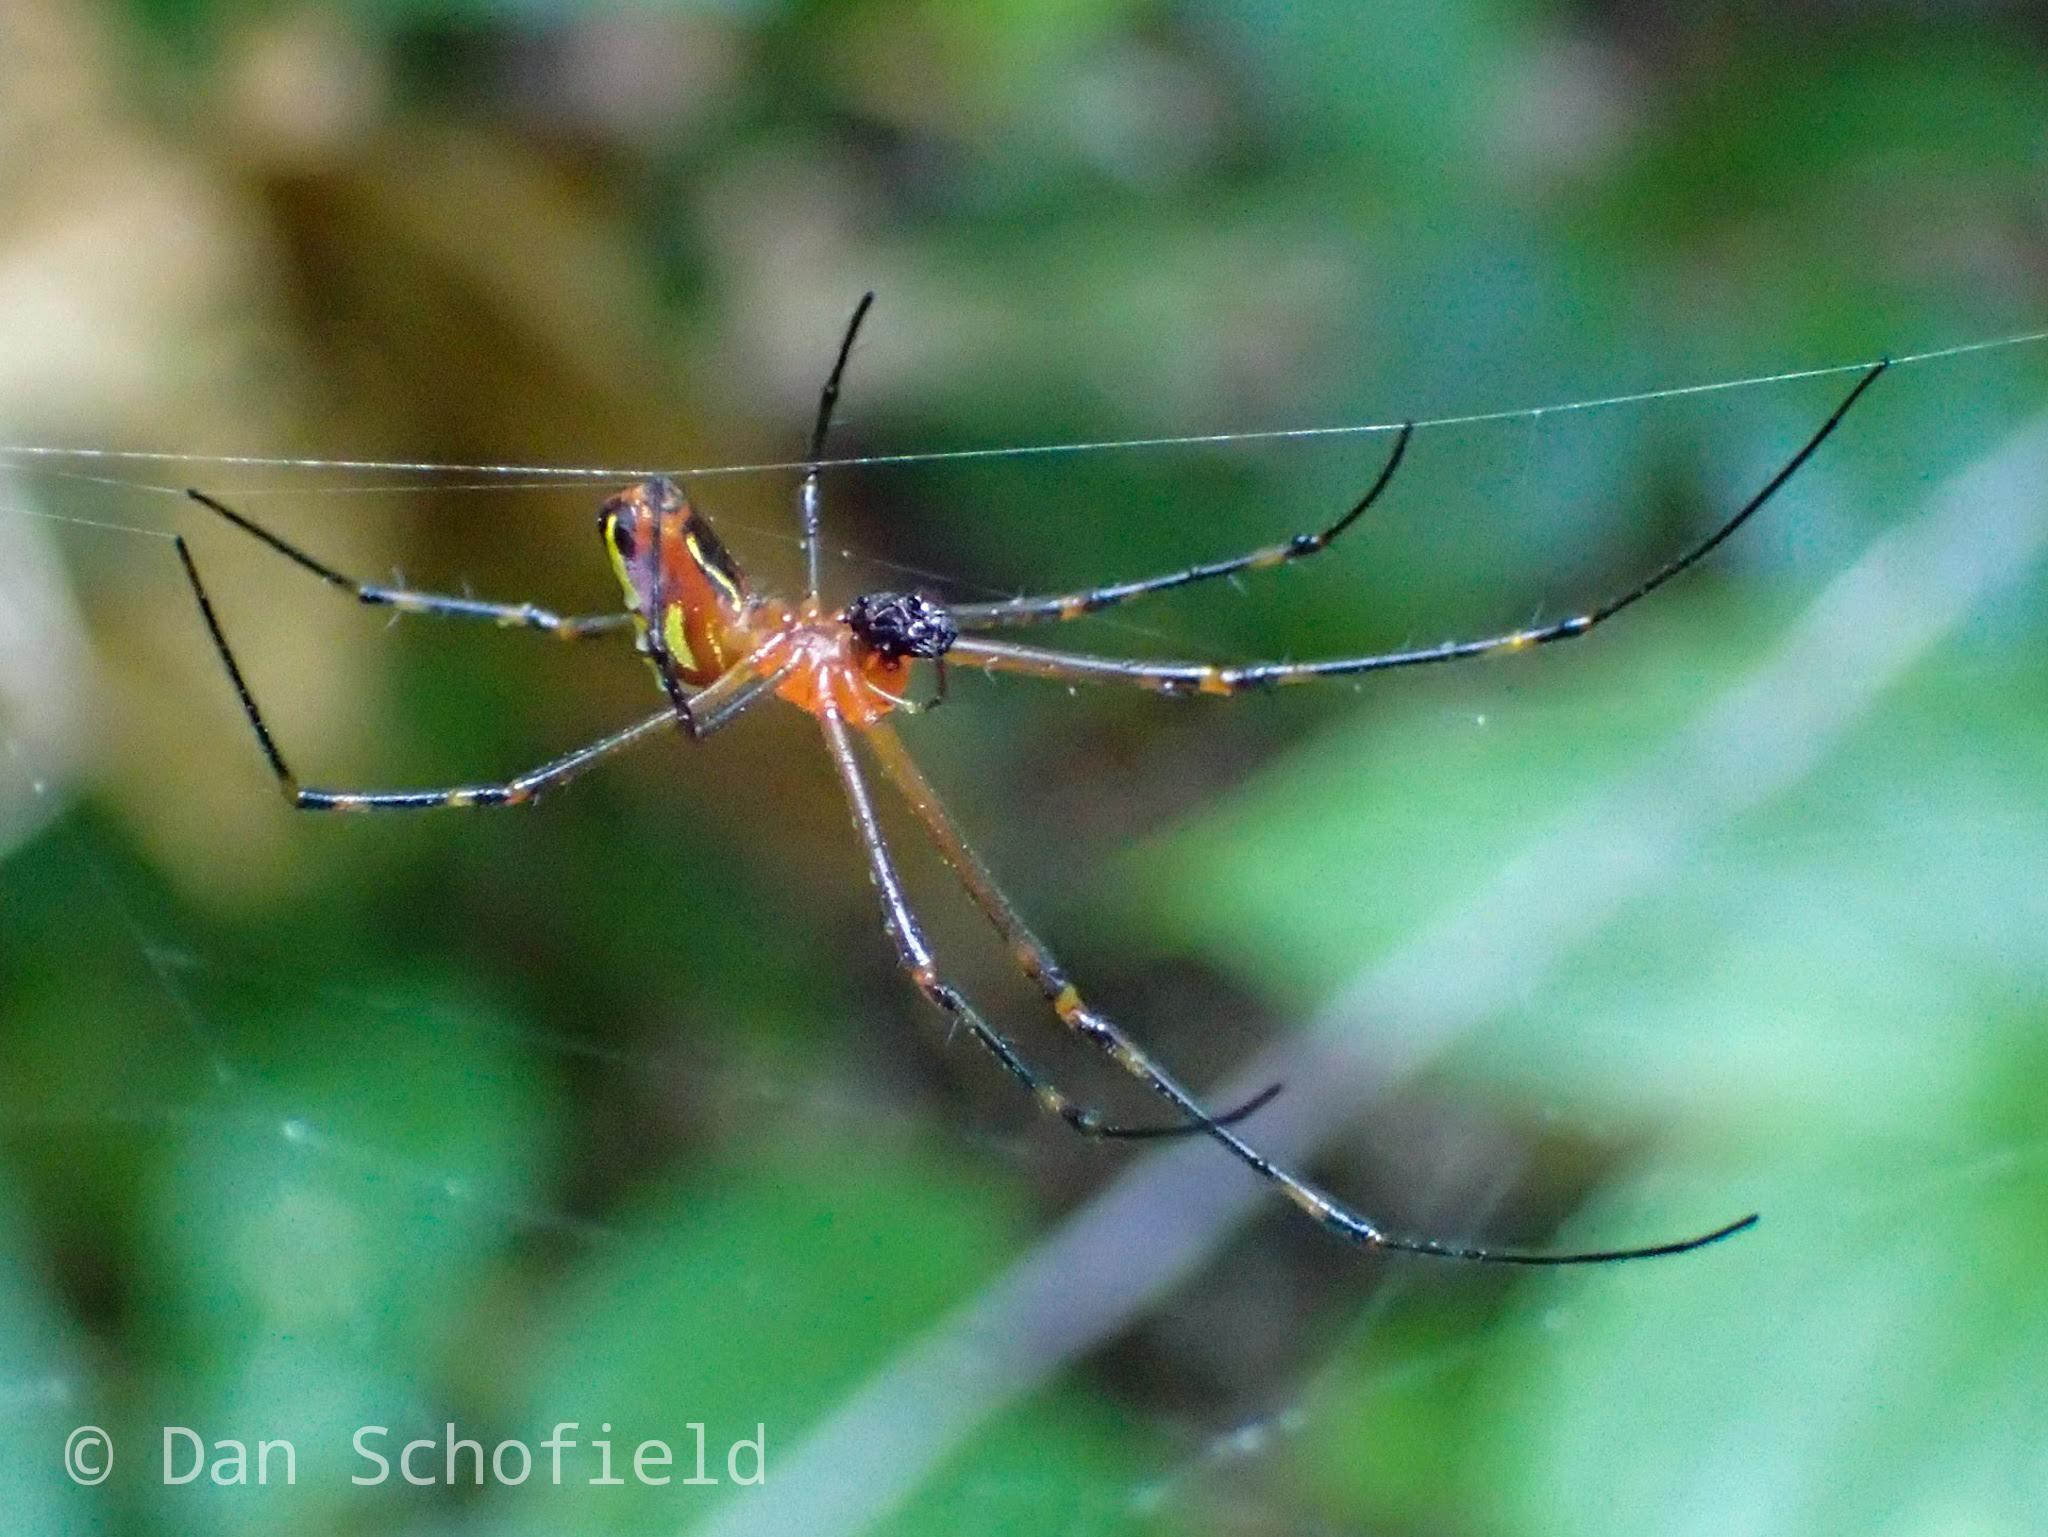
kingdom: Animalia
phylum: Arthropoda
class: Arachnida
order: Araneae
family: Tetragnathidae
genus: Leucauge
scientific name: Leucauge fastigata
